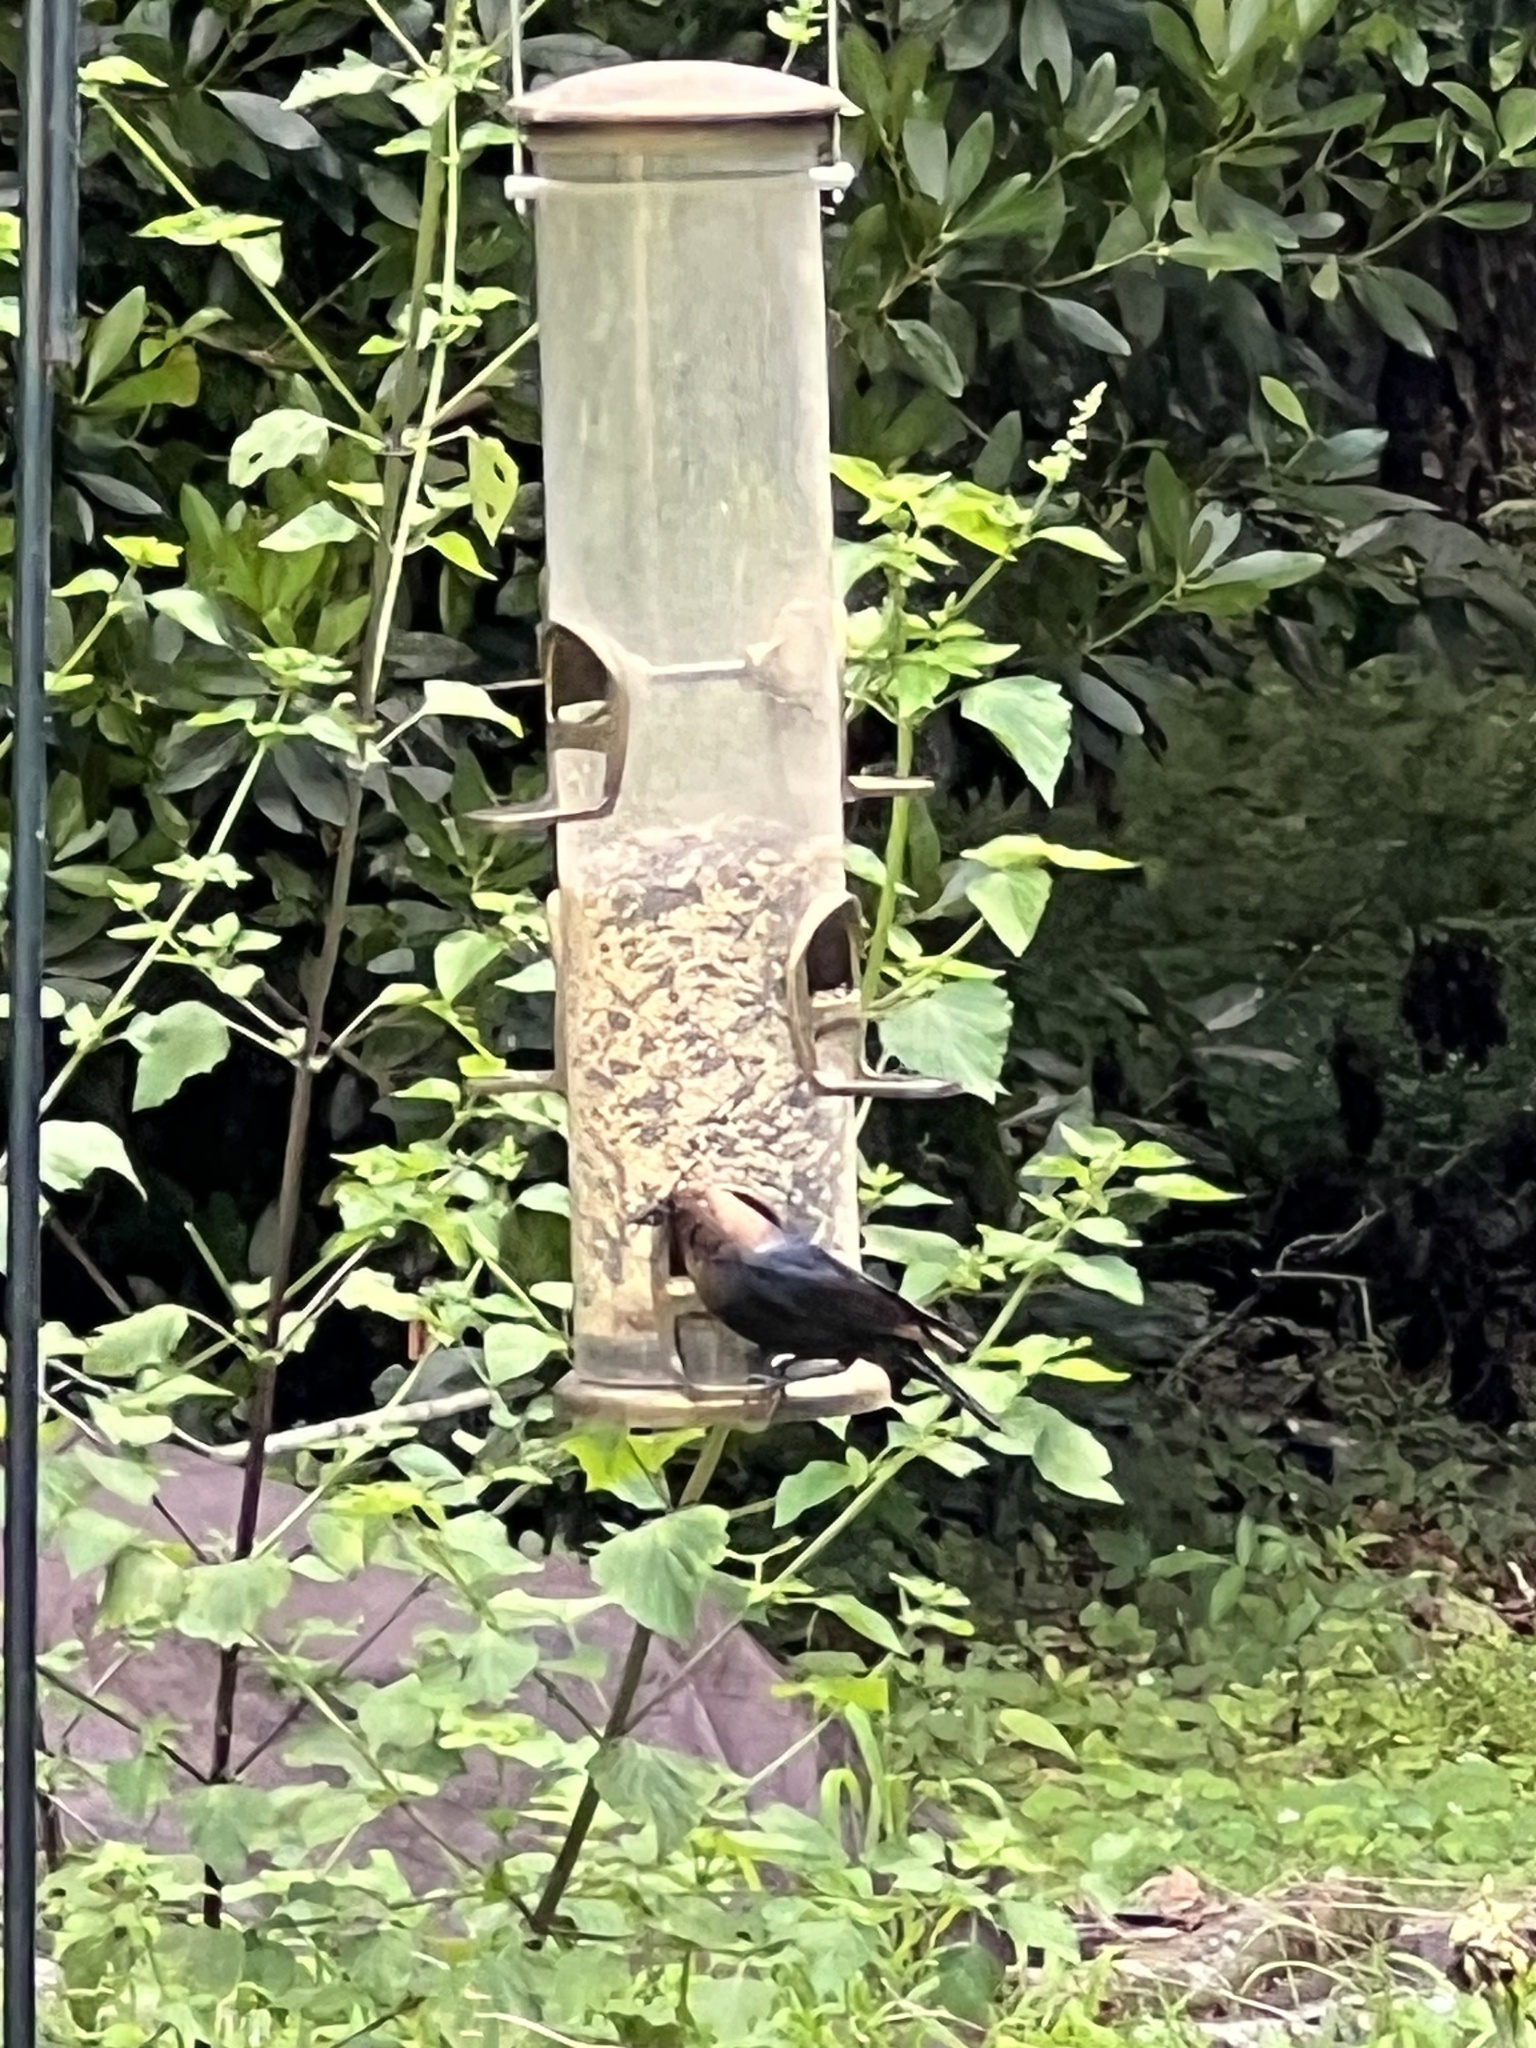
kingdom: Animalia
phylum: Chordata
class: Aves
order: Passeriformes
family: Icteridae
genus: Molothrus
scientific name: Molothrus ater
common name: Brown-headed cowbird
